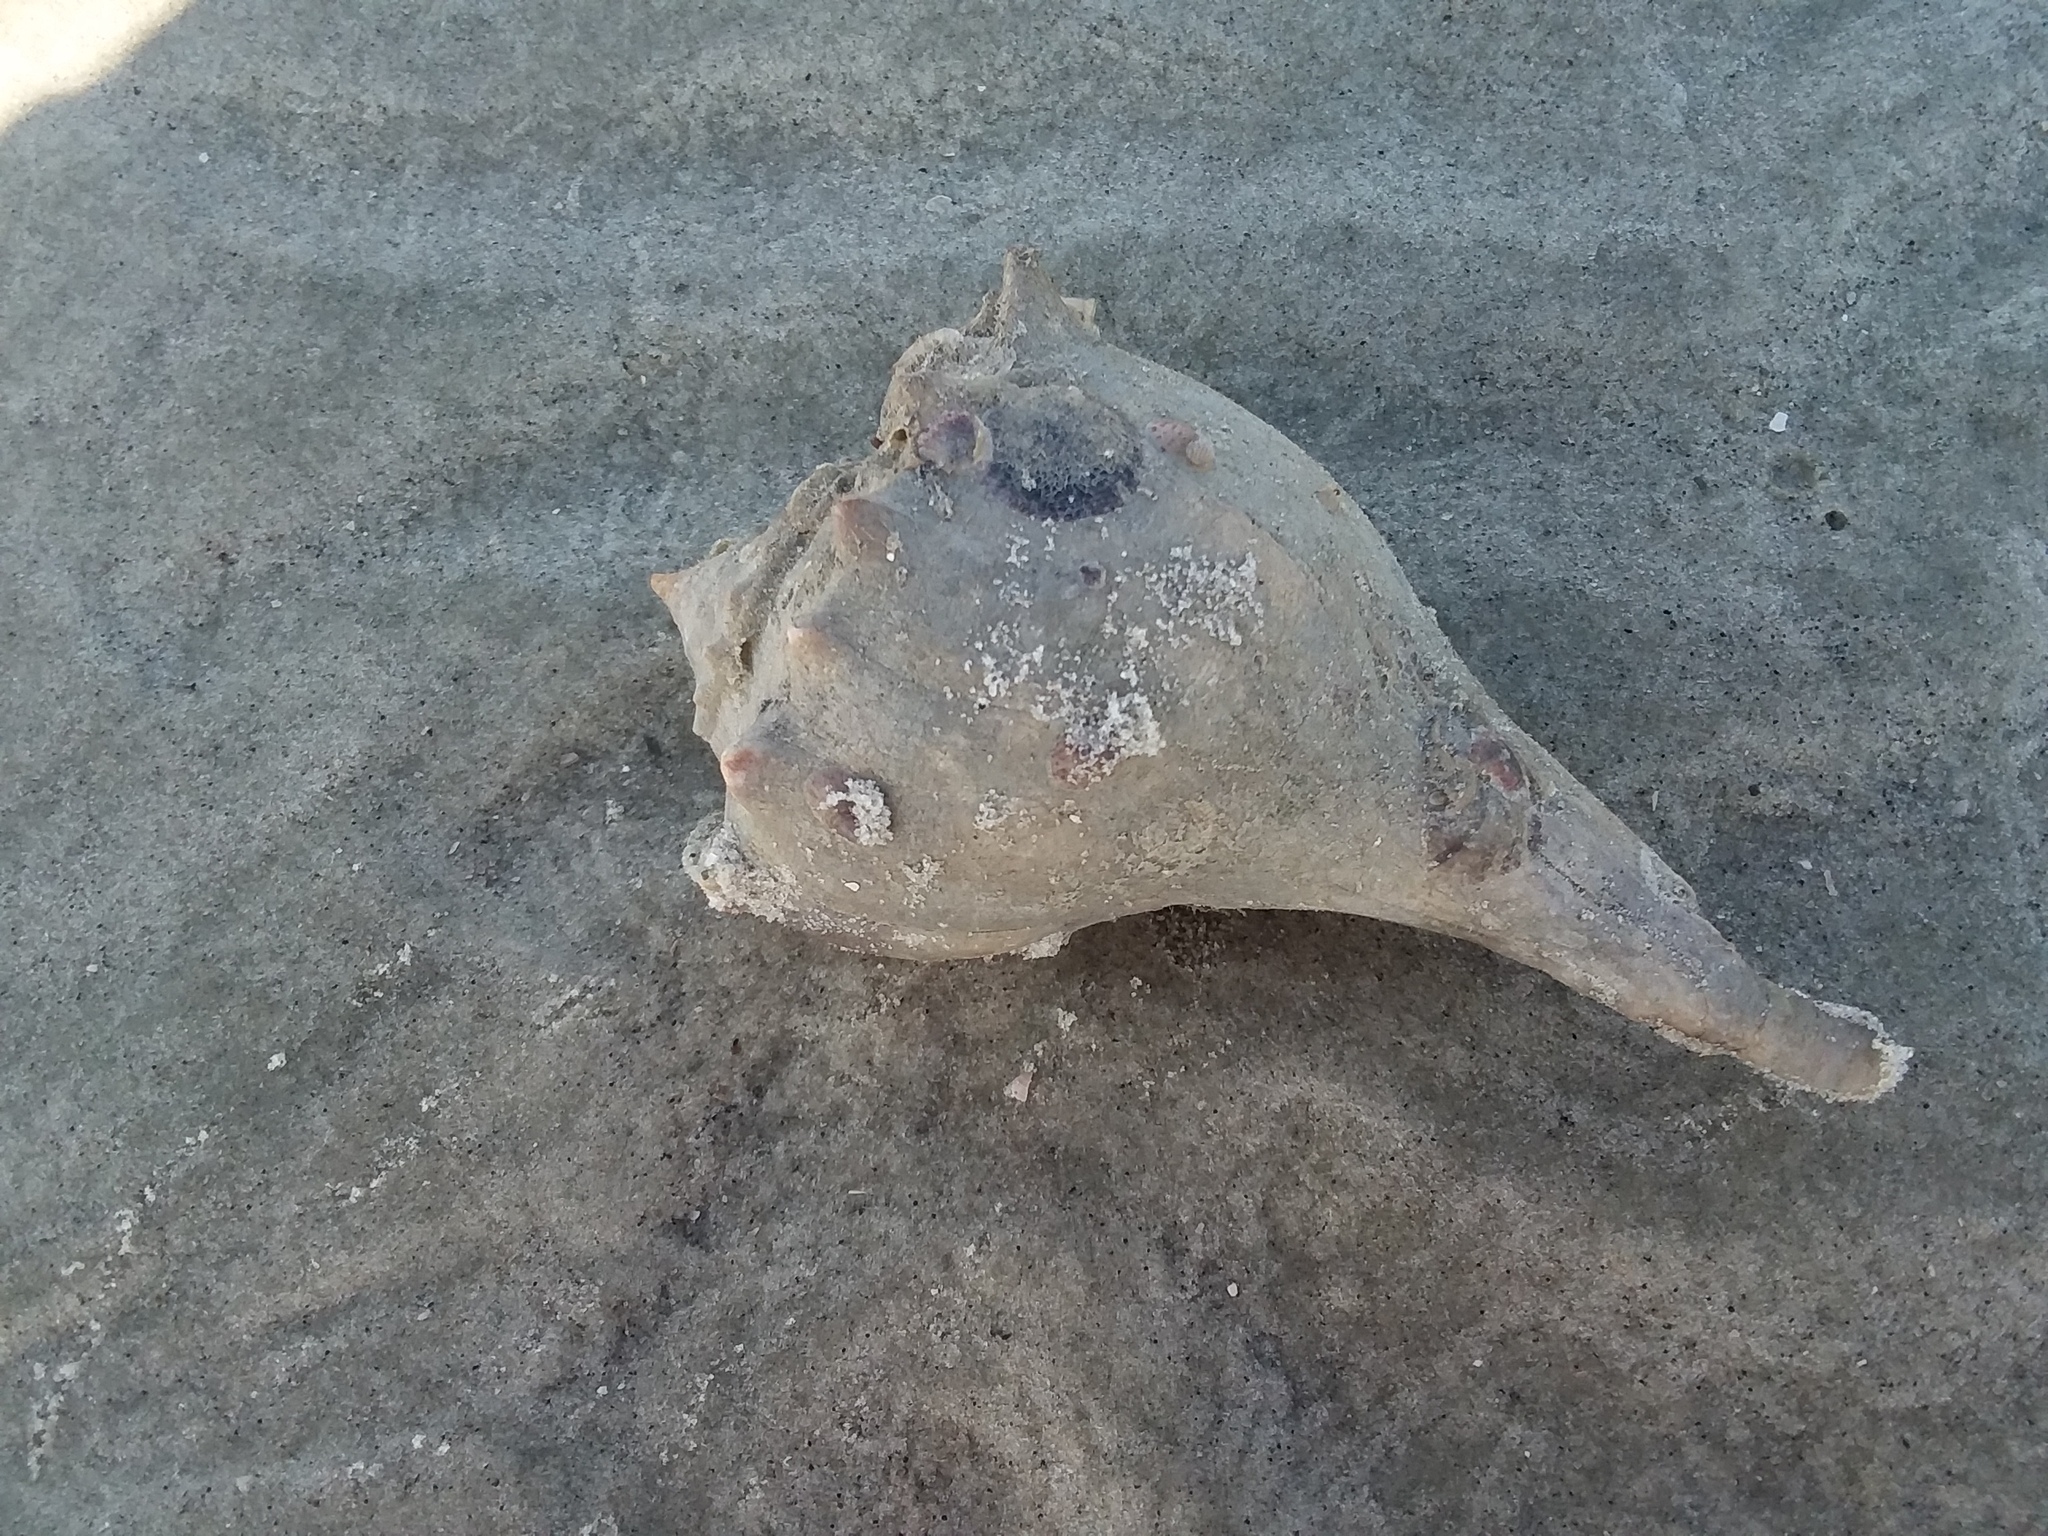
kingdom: Animalia
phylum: Arthropoda
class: Malacostraca
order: Decapoda
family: Diogenidae
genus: Clibanarius
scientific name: Clibanarius vittatus
